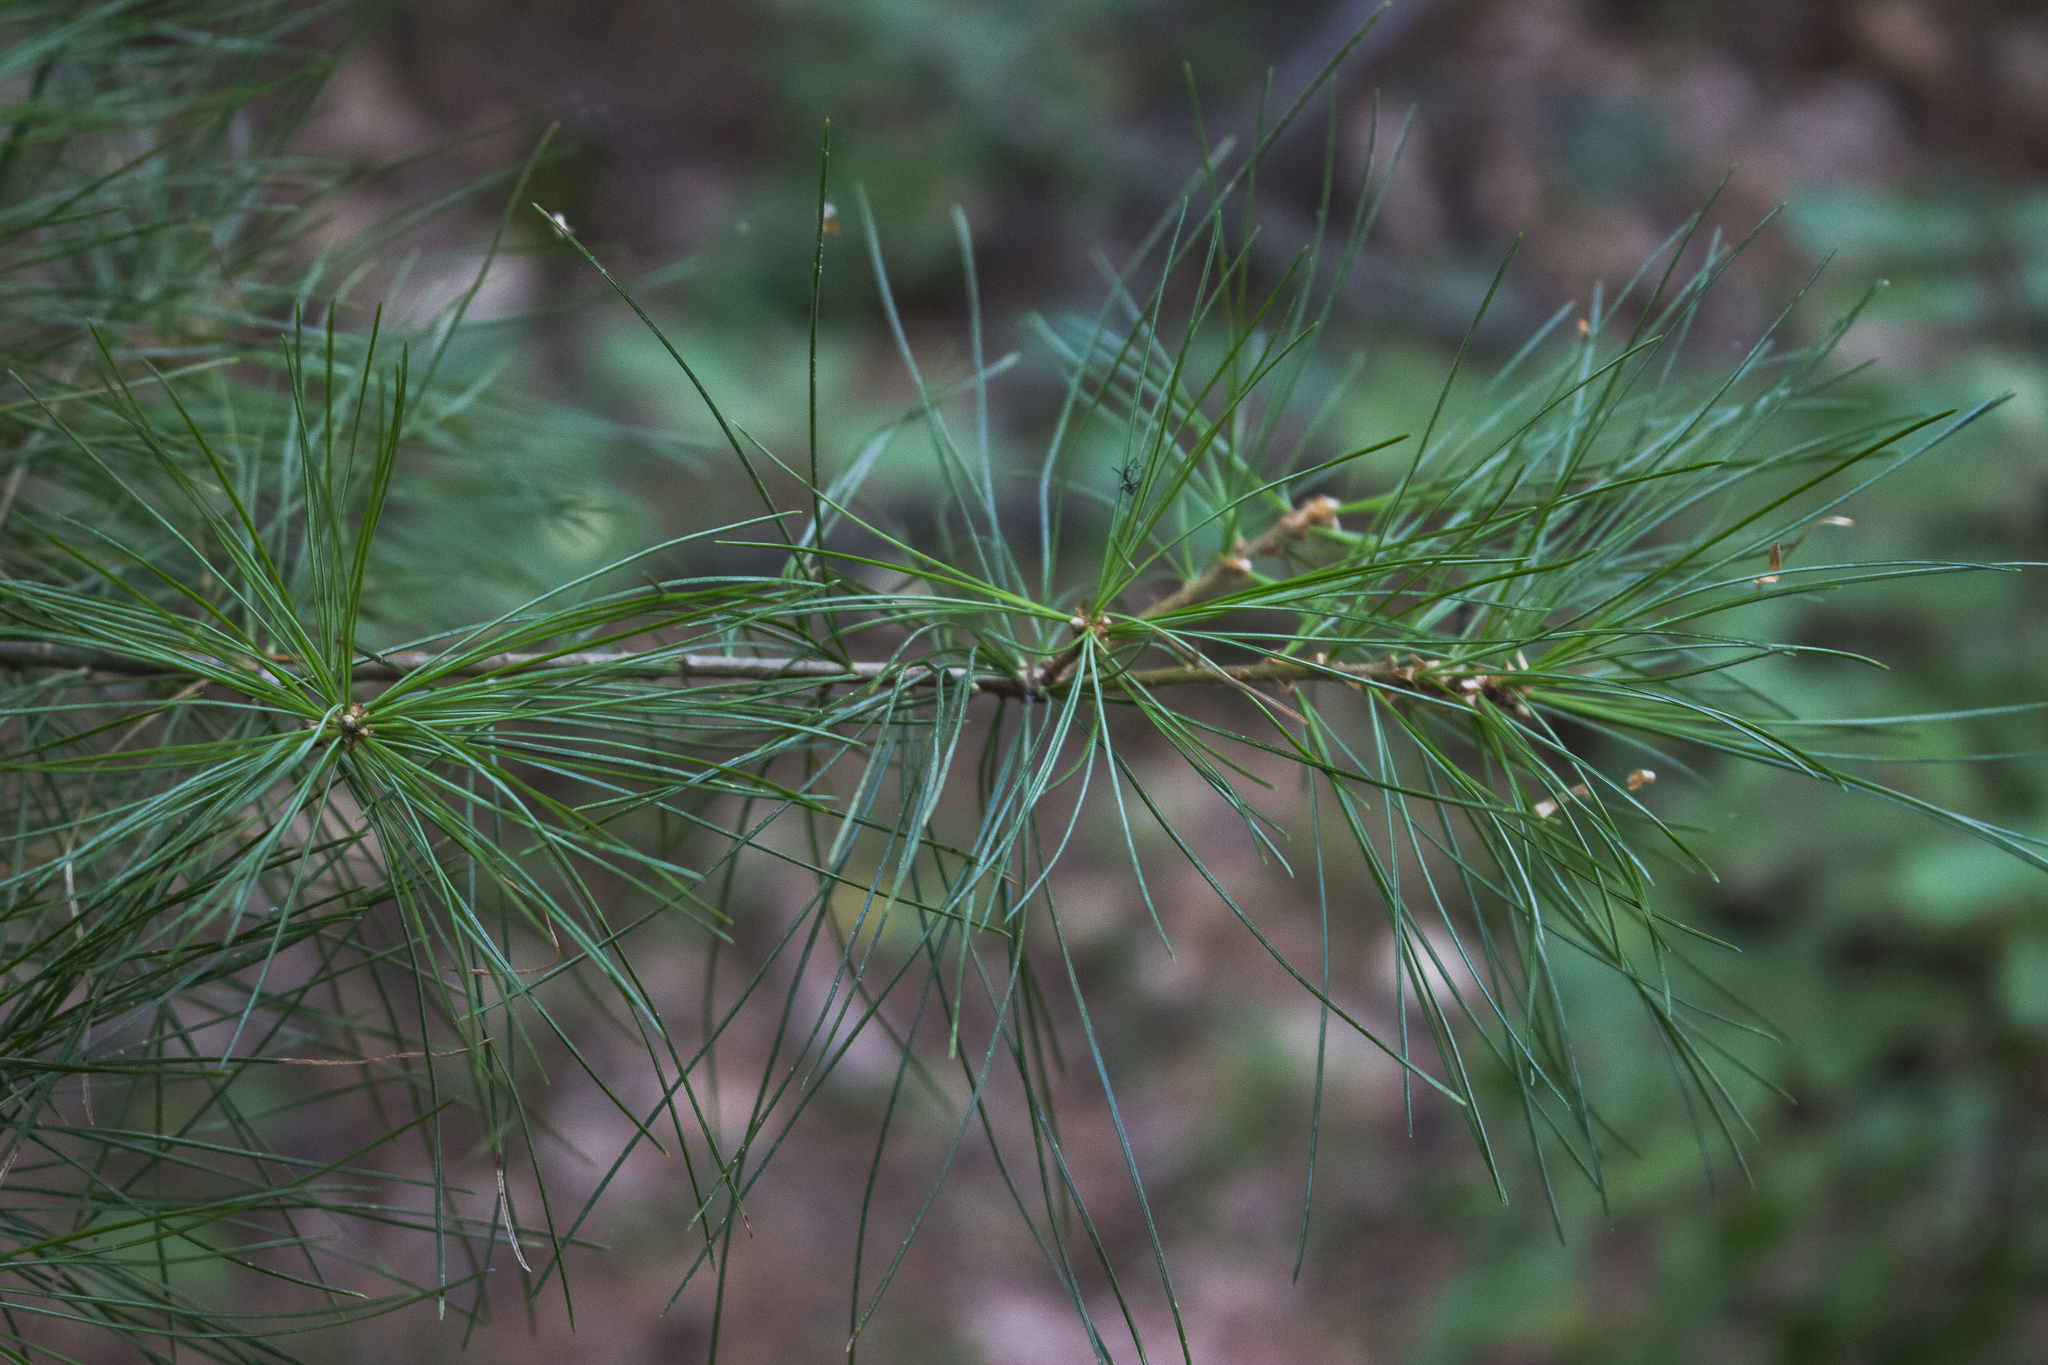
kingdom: Plantae
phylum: Tracheophyta
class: Pinopsida
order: Pinales
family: Pinaceae
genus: Pinus
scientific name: Pinus strobus
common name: Weymouth pine
